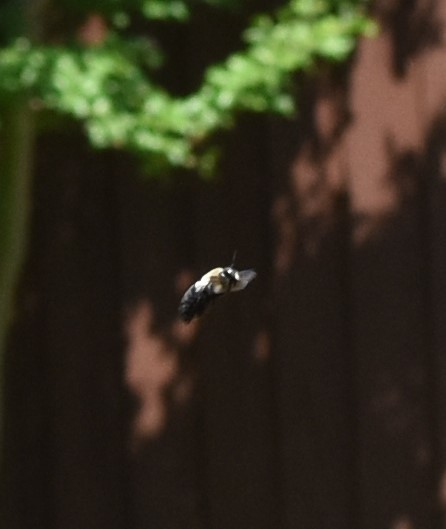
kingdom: Animalia
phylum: Arthropoda
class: Insecta
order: Hymenoptera
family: Apidae
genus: Xylocopa
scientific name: Xylocopa virginica
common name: Carpenter bee
